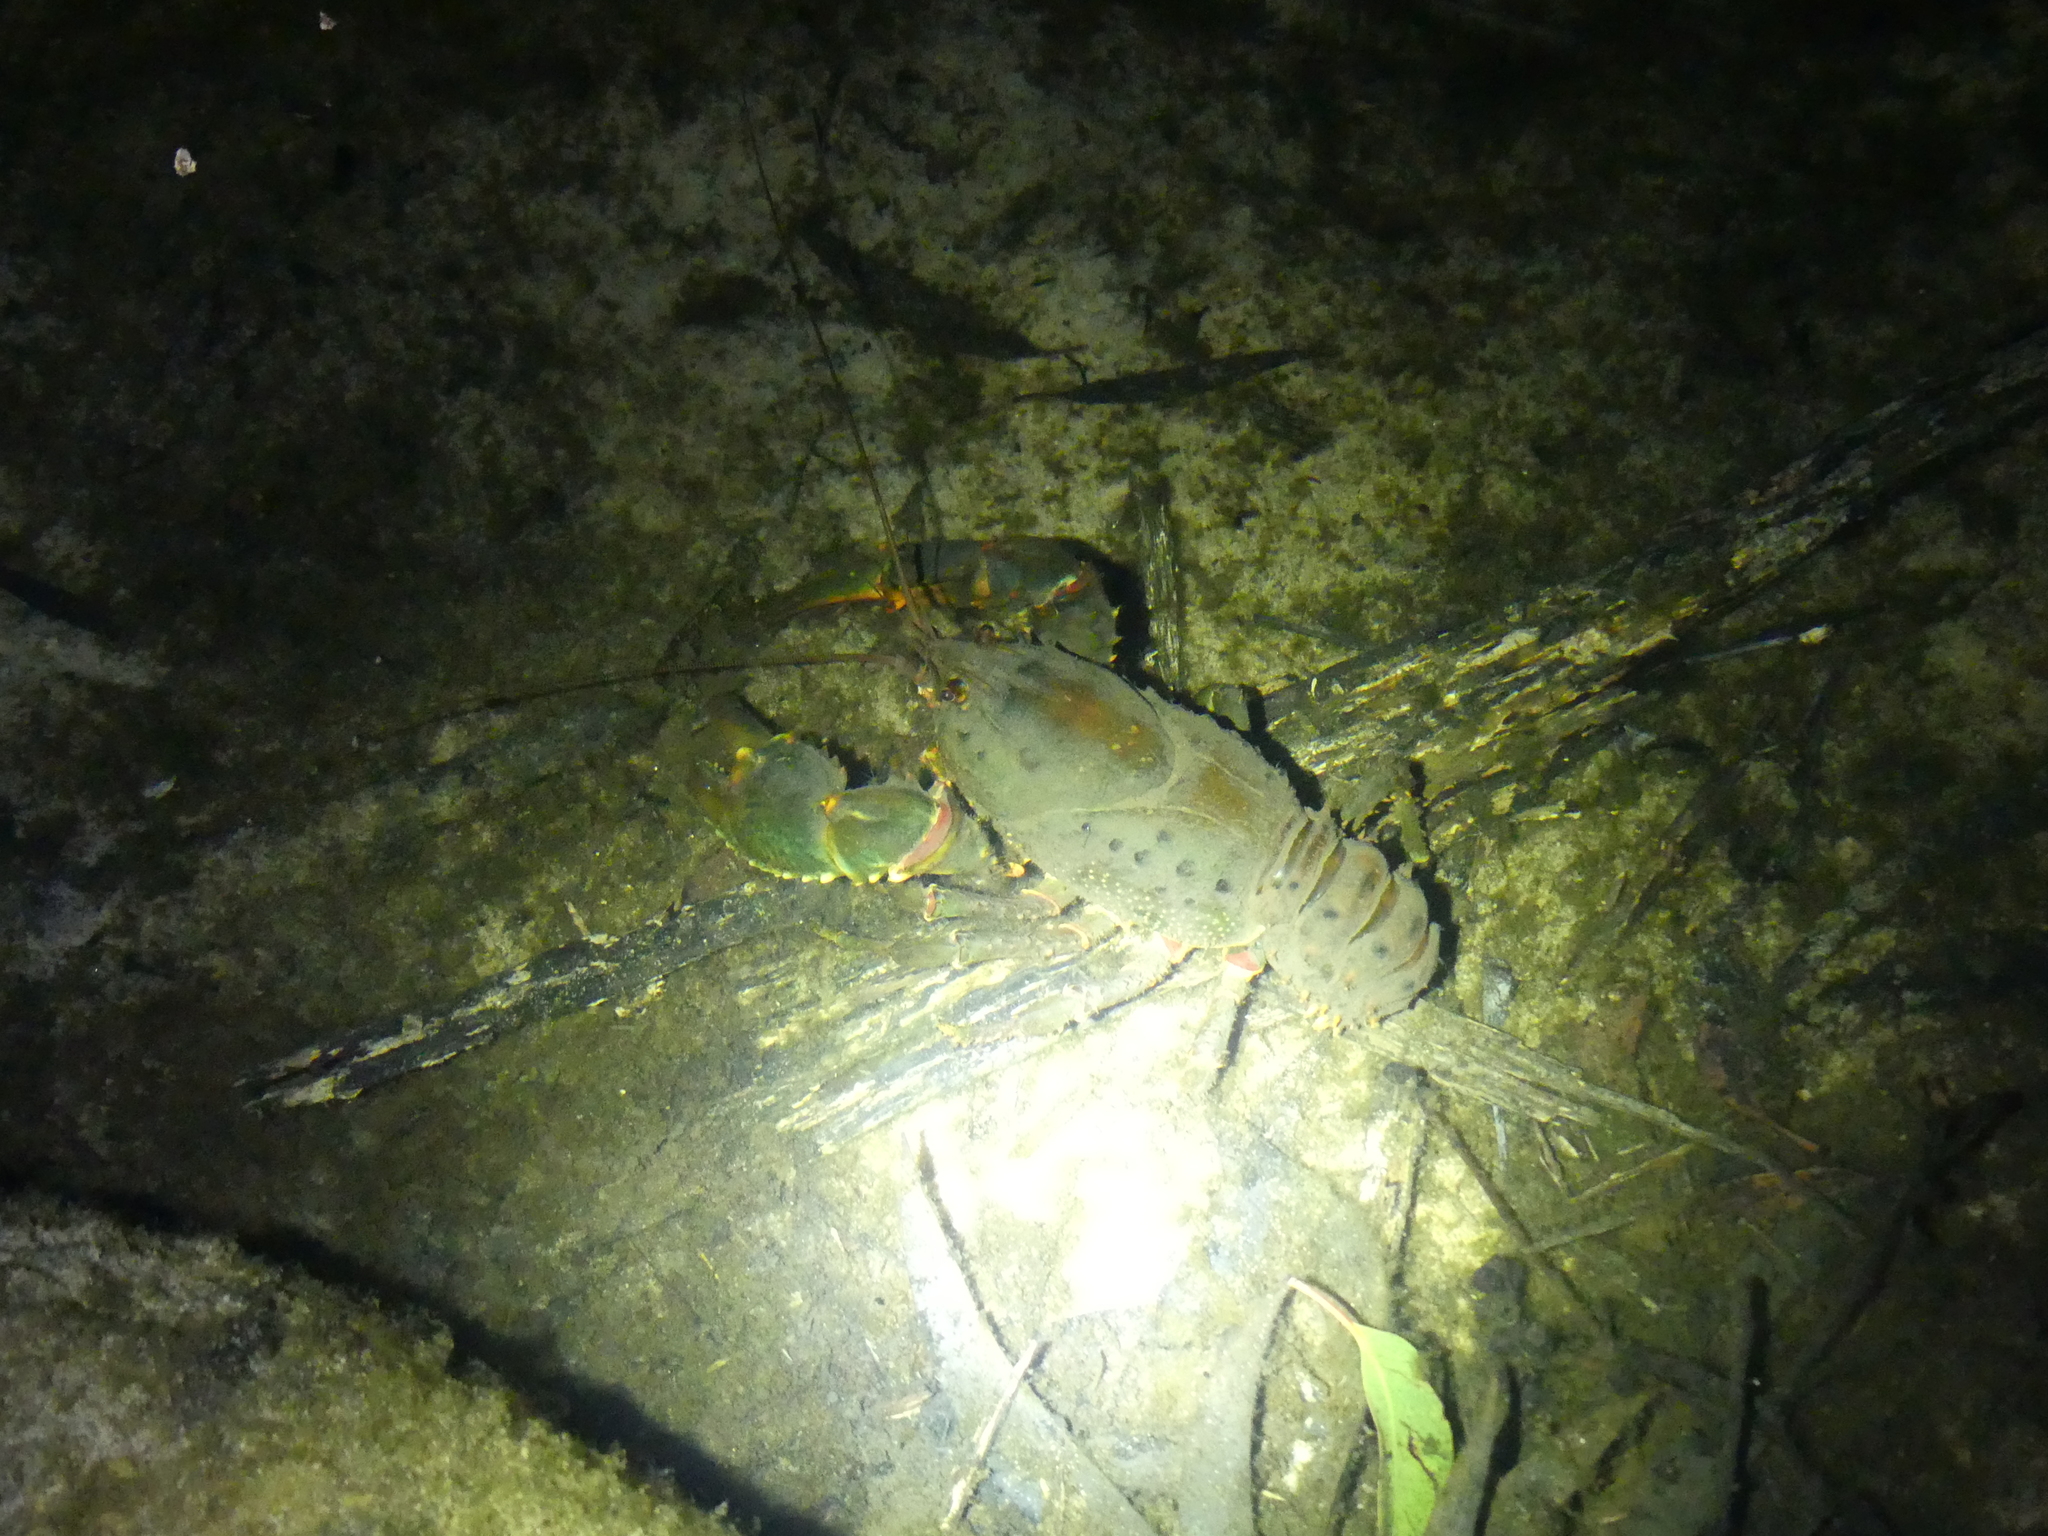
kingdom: Animalia
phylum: Arthropoda
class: Malacostraca
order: Decapoda
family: Parastacidae
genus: Euastacus
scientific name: Euastacus spinifer
